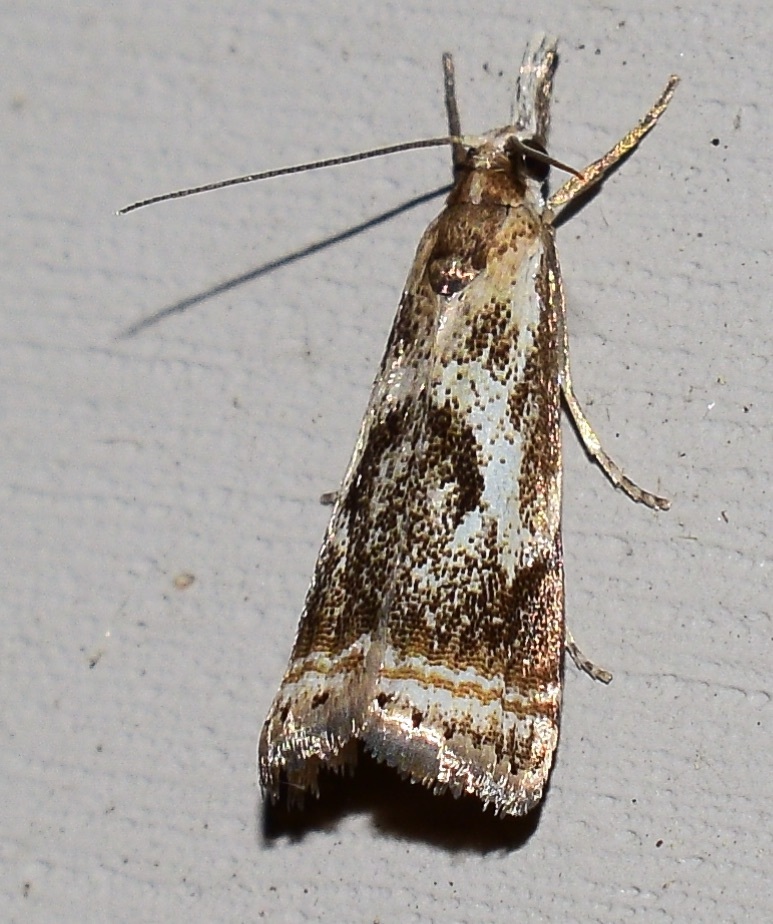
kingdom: Animalia
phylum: Arthropoda
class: Insecta
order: Lepidoptera
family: Crambidae
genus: Microcrambus
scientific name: Microcrambus elegans
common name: Elegant grass-veneer
